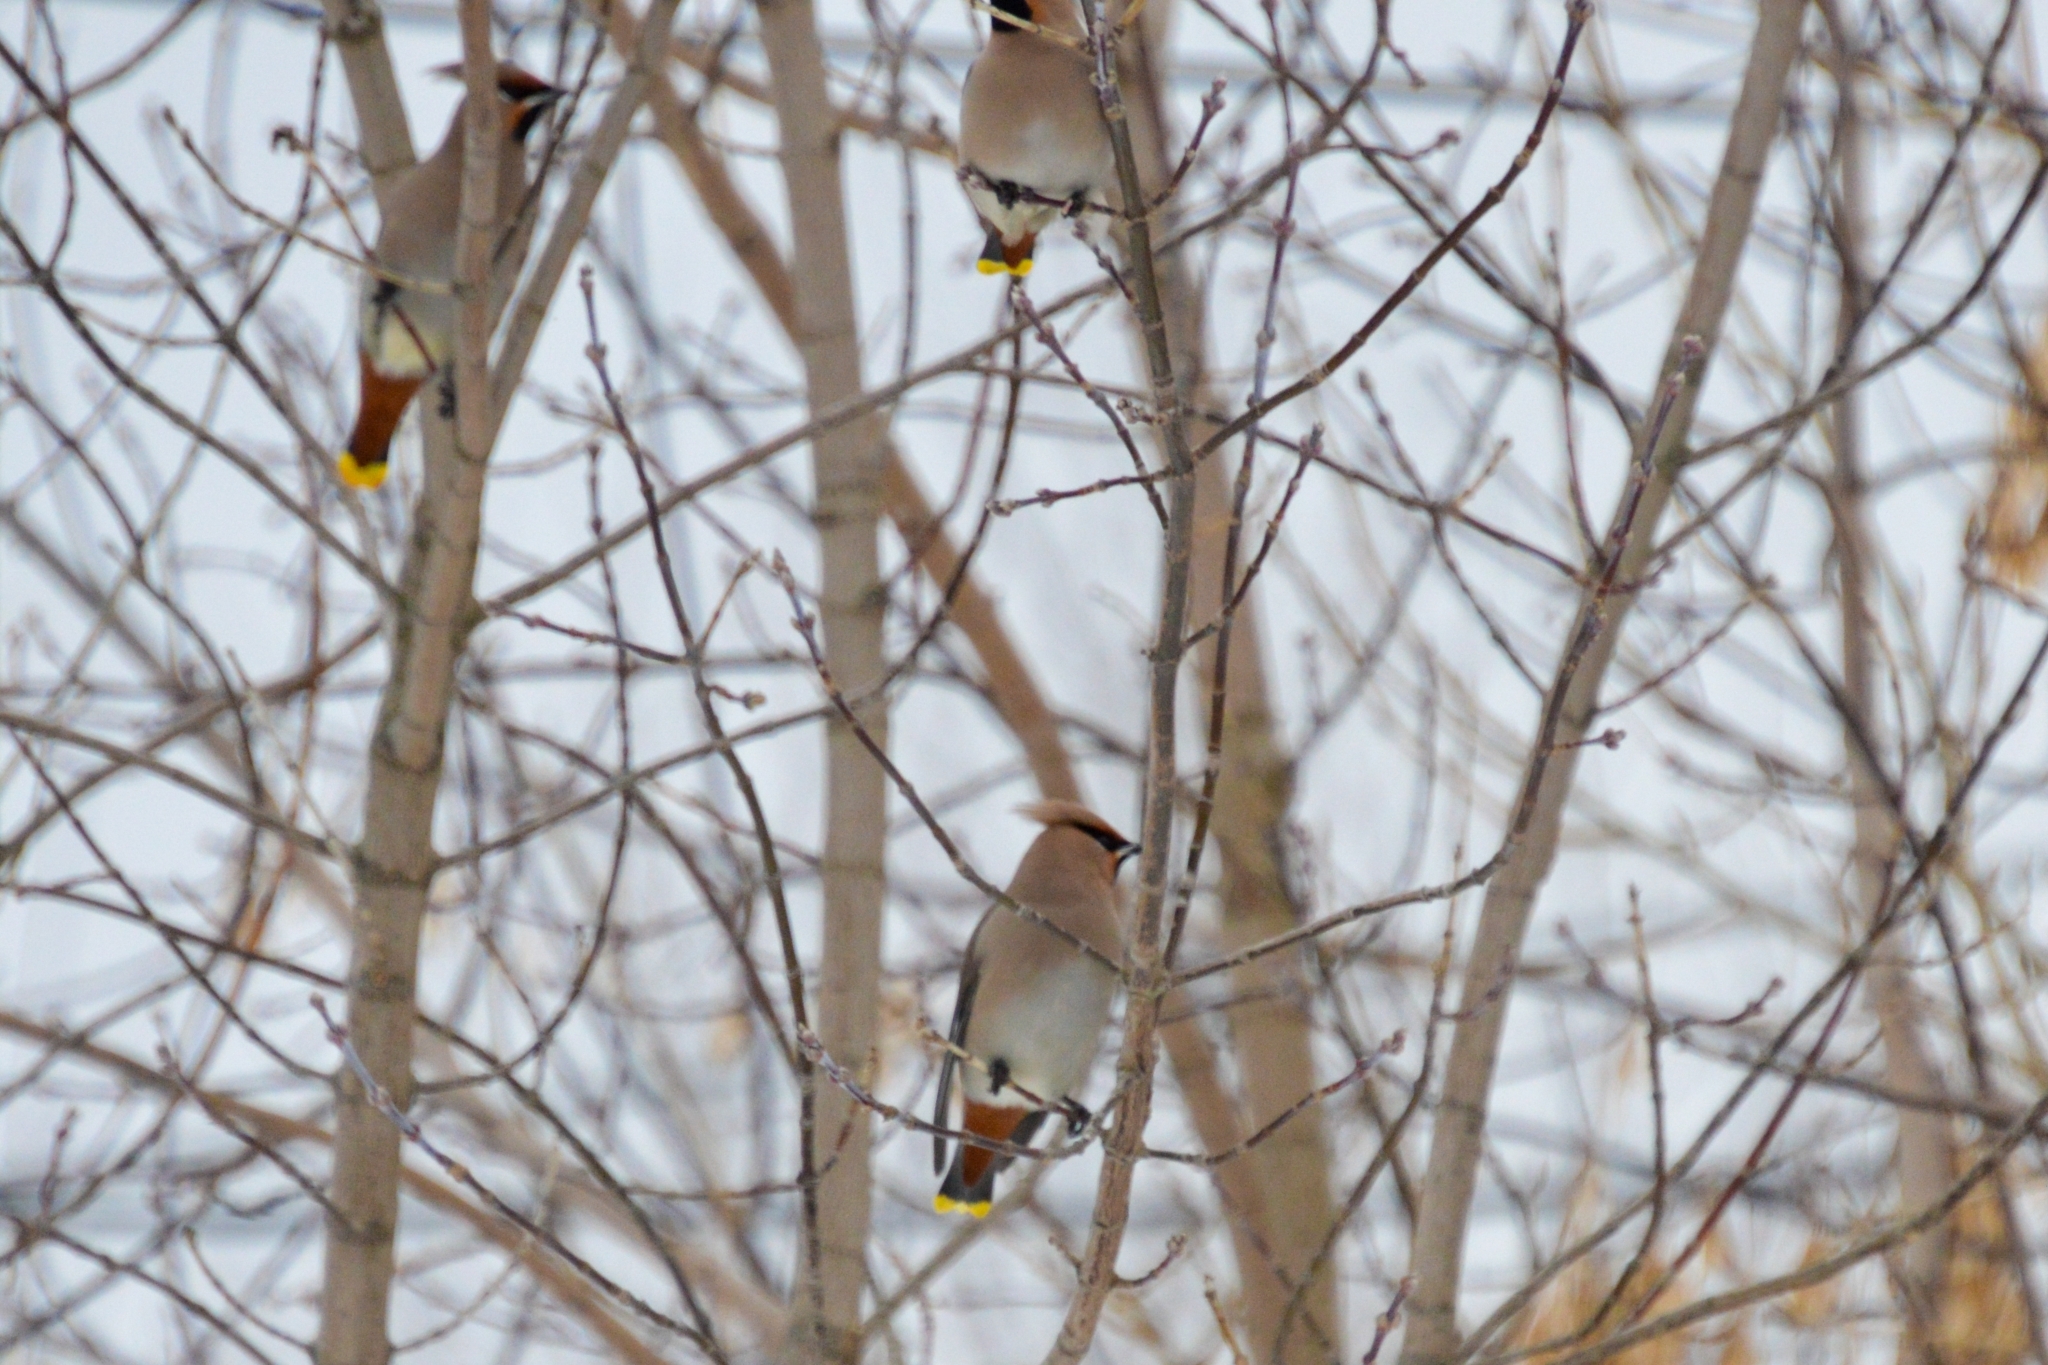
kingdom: Animalia
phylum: Chordata
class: Aves
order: Passeriformes
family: Bombycillidae
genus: Bombycilla
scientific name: Bombycilla garrulus
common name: Bohemian waxwing
